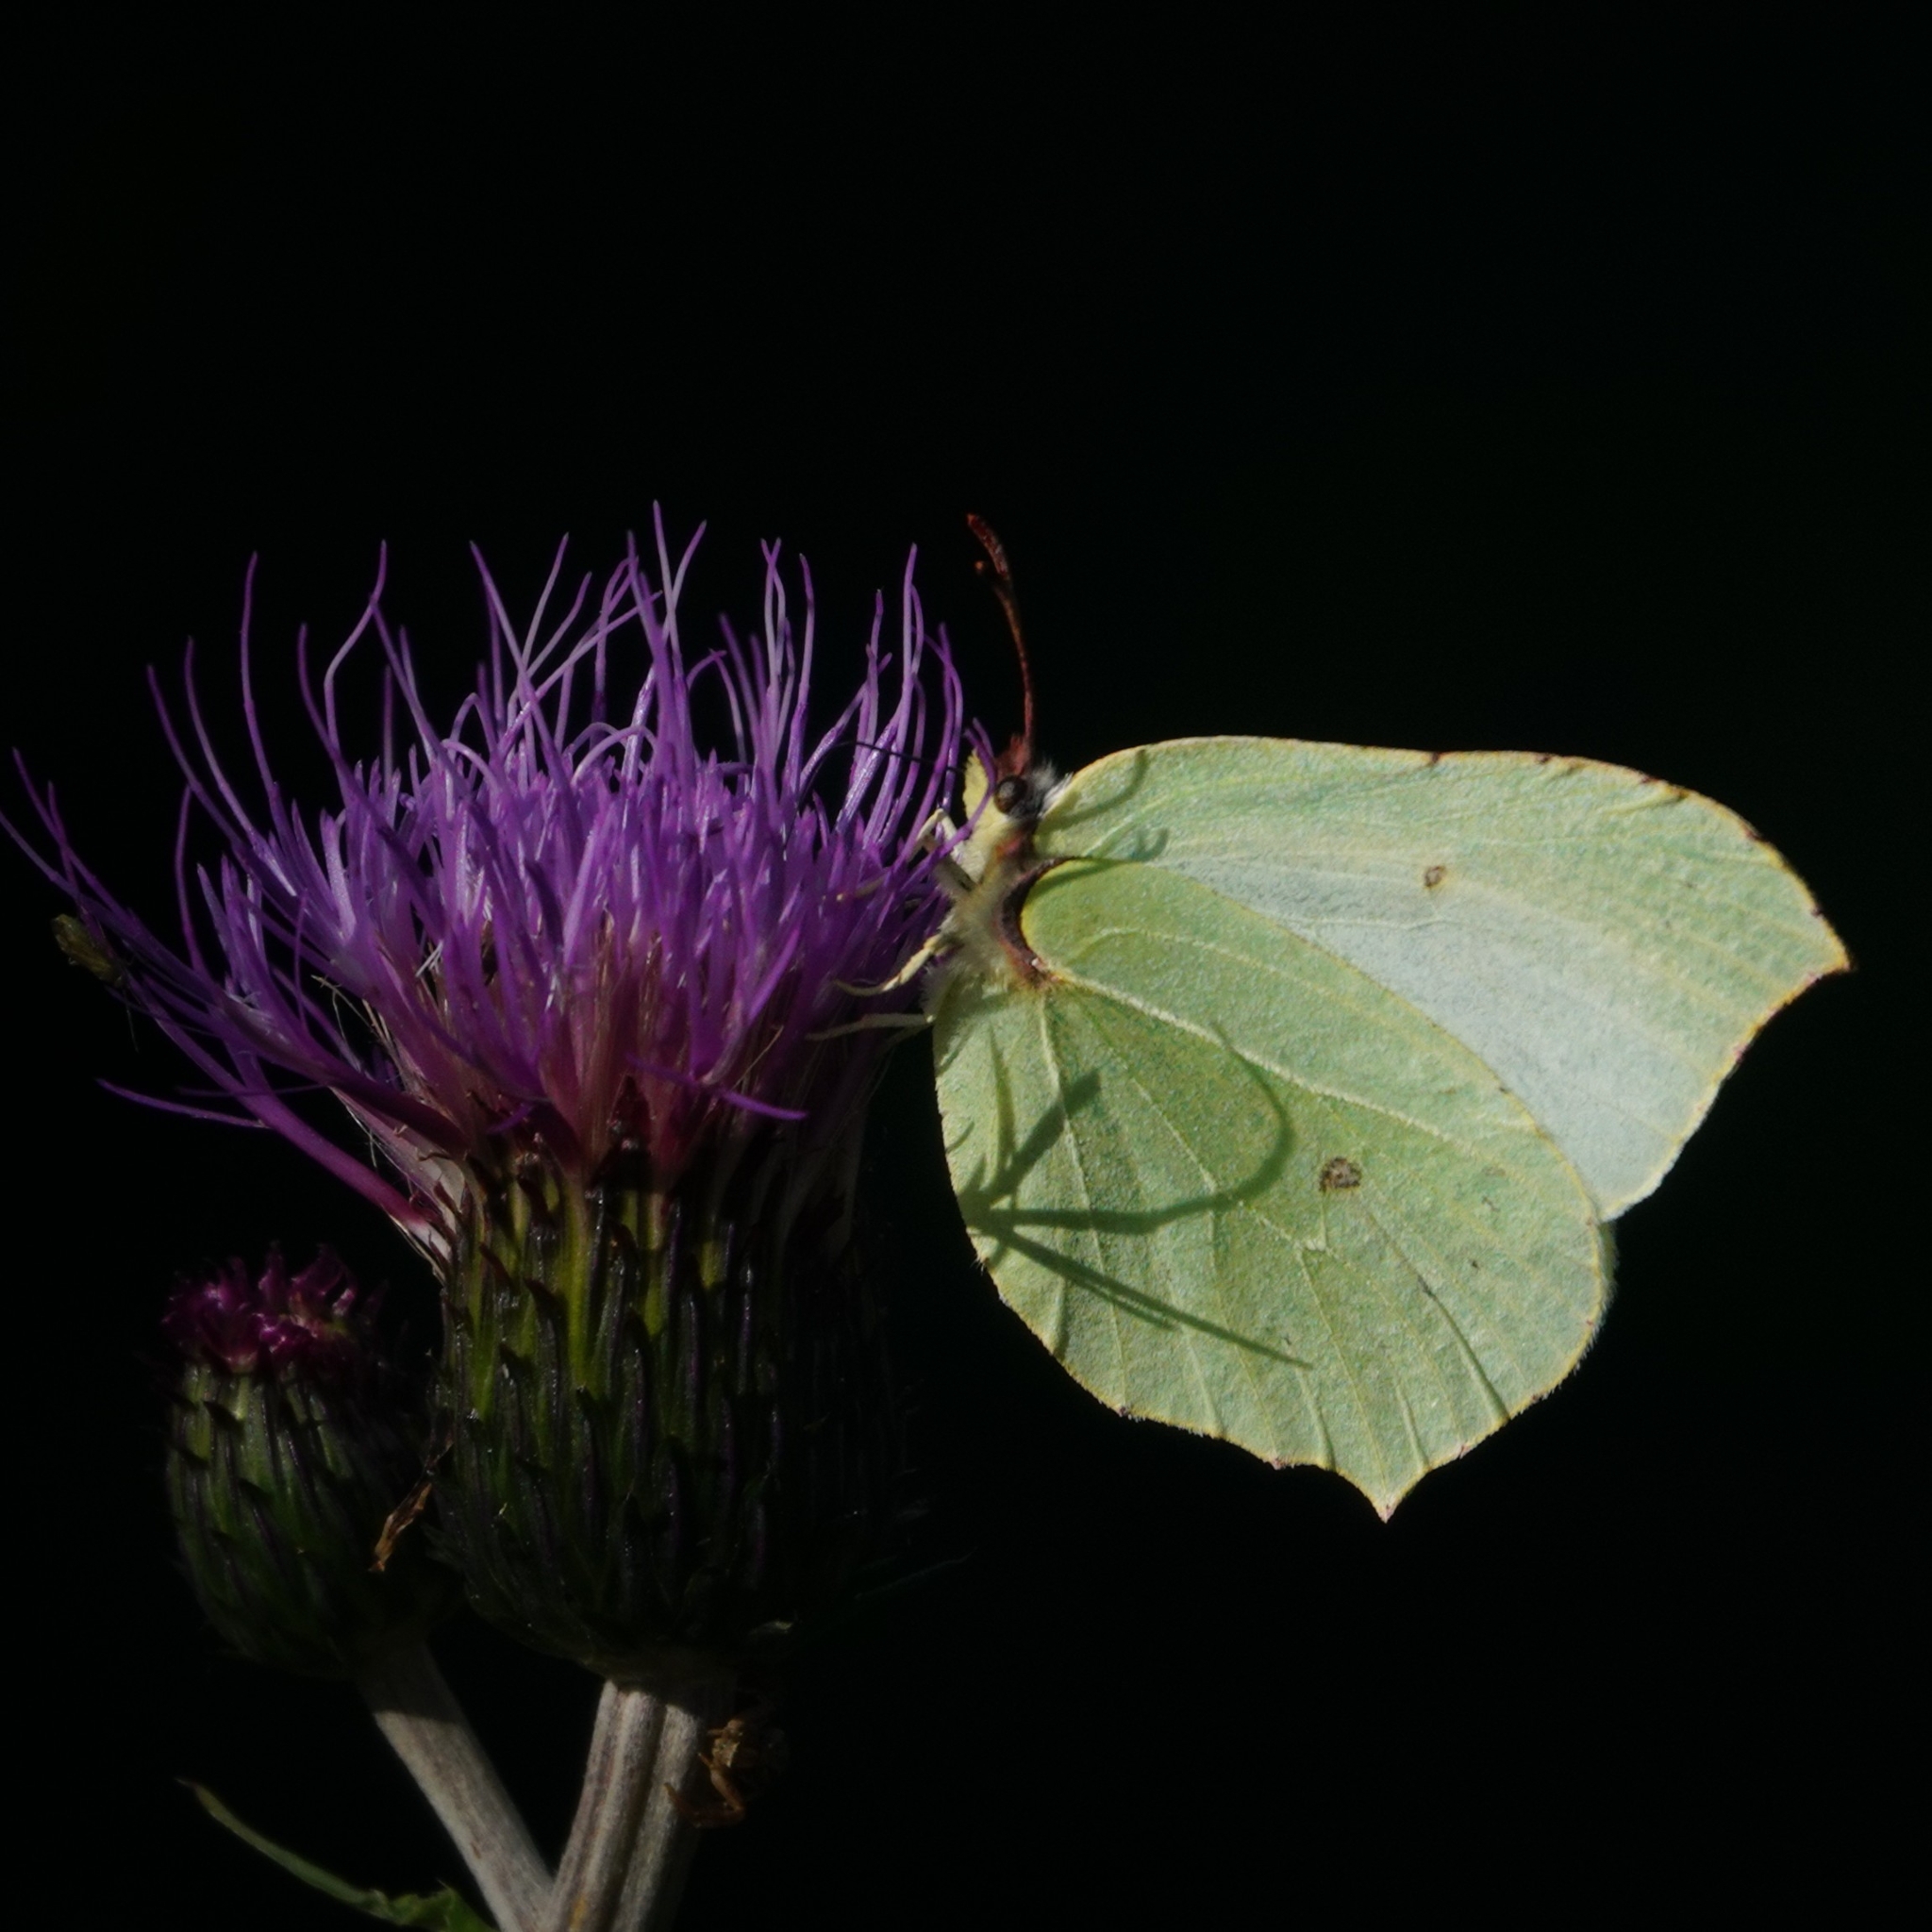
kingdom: Animalia
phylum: Arthropoda
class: Insecta
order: Lepidoptera
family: Pieridae
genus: Gonepteryx
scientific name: Gonepteryx rhamni
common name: Brimstone
